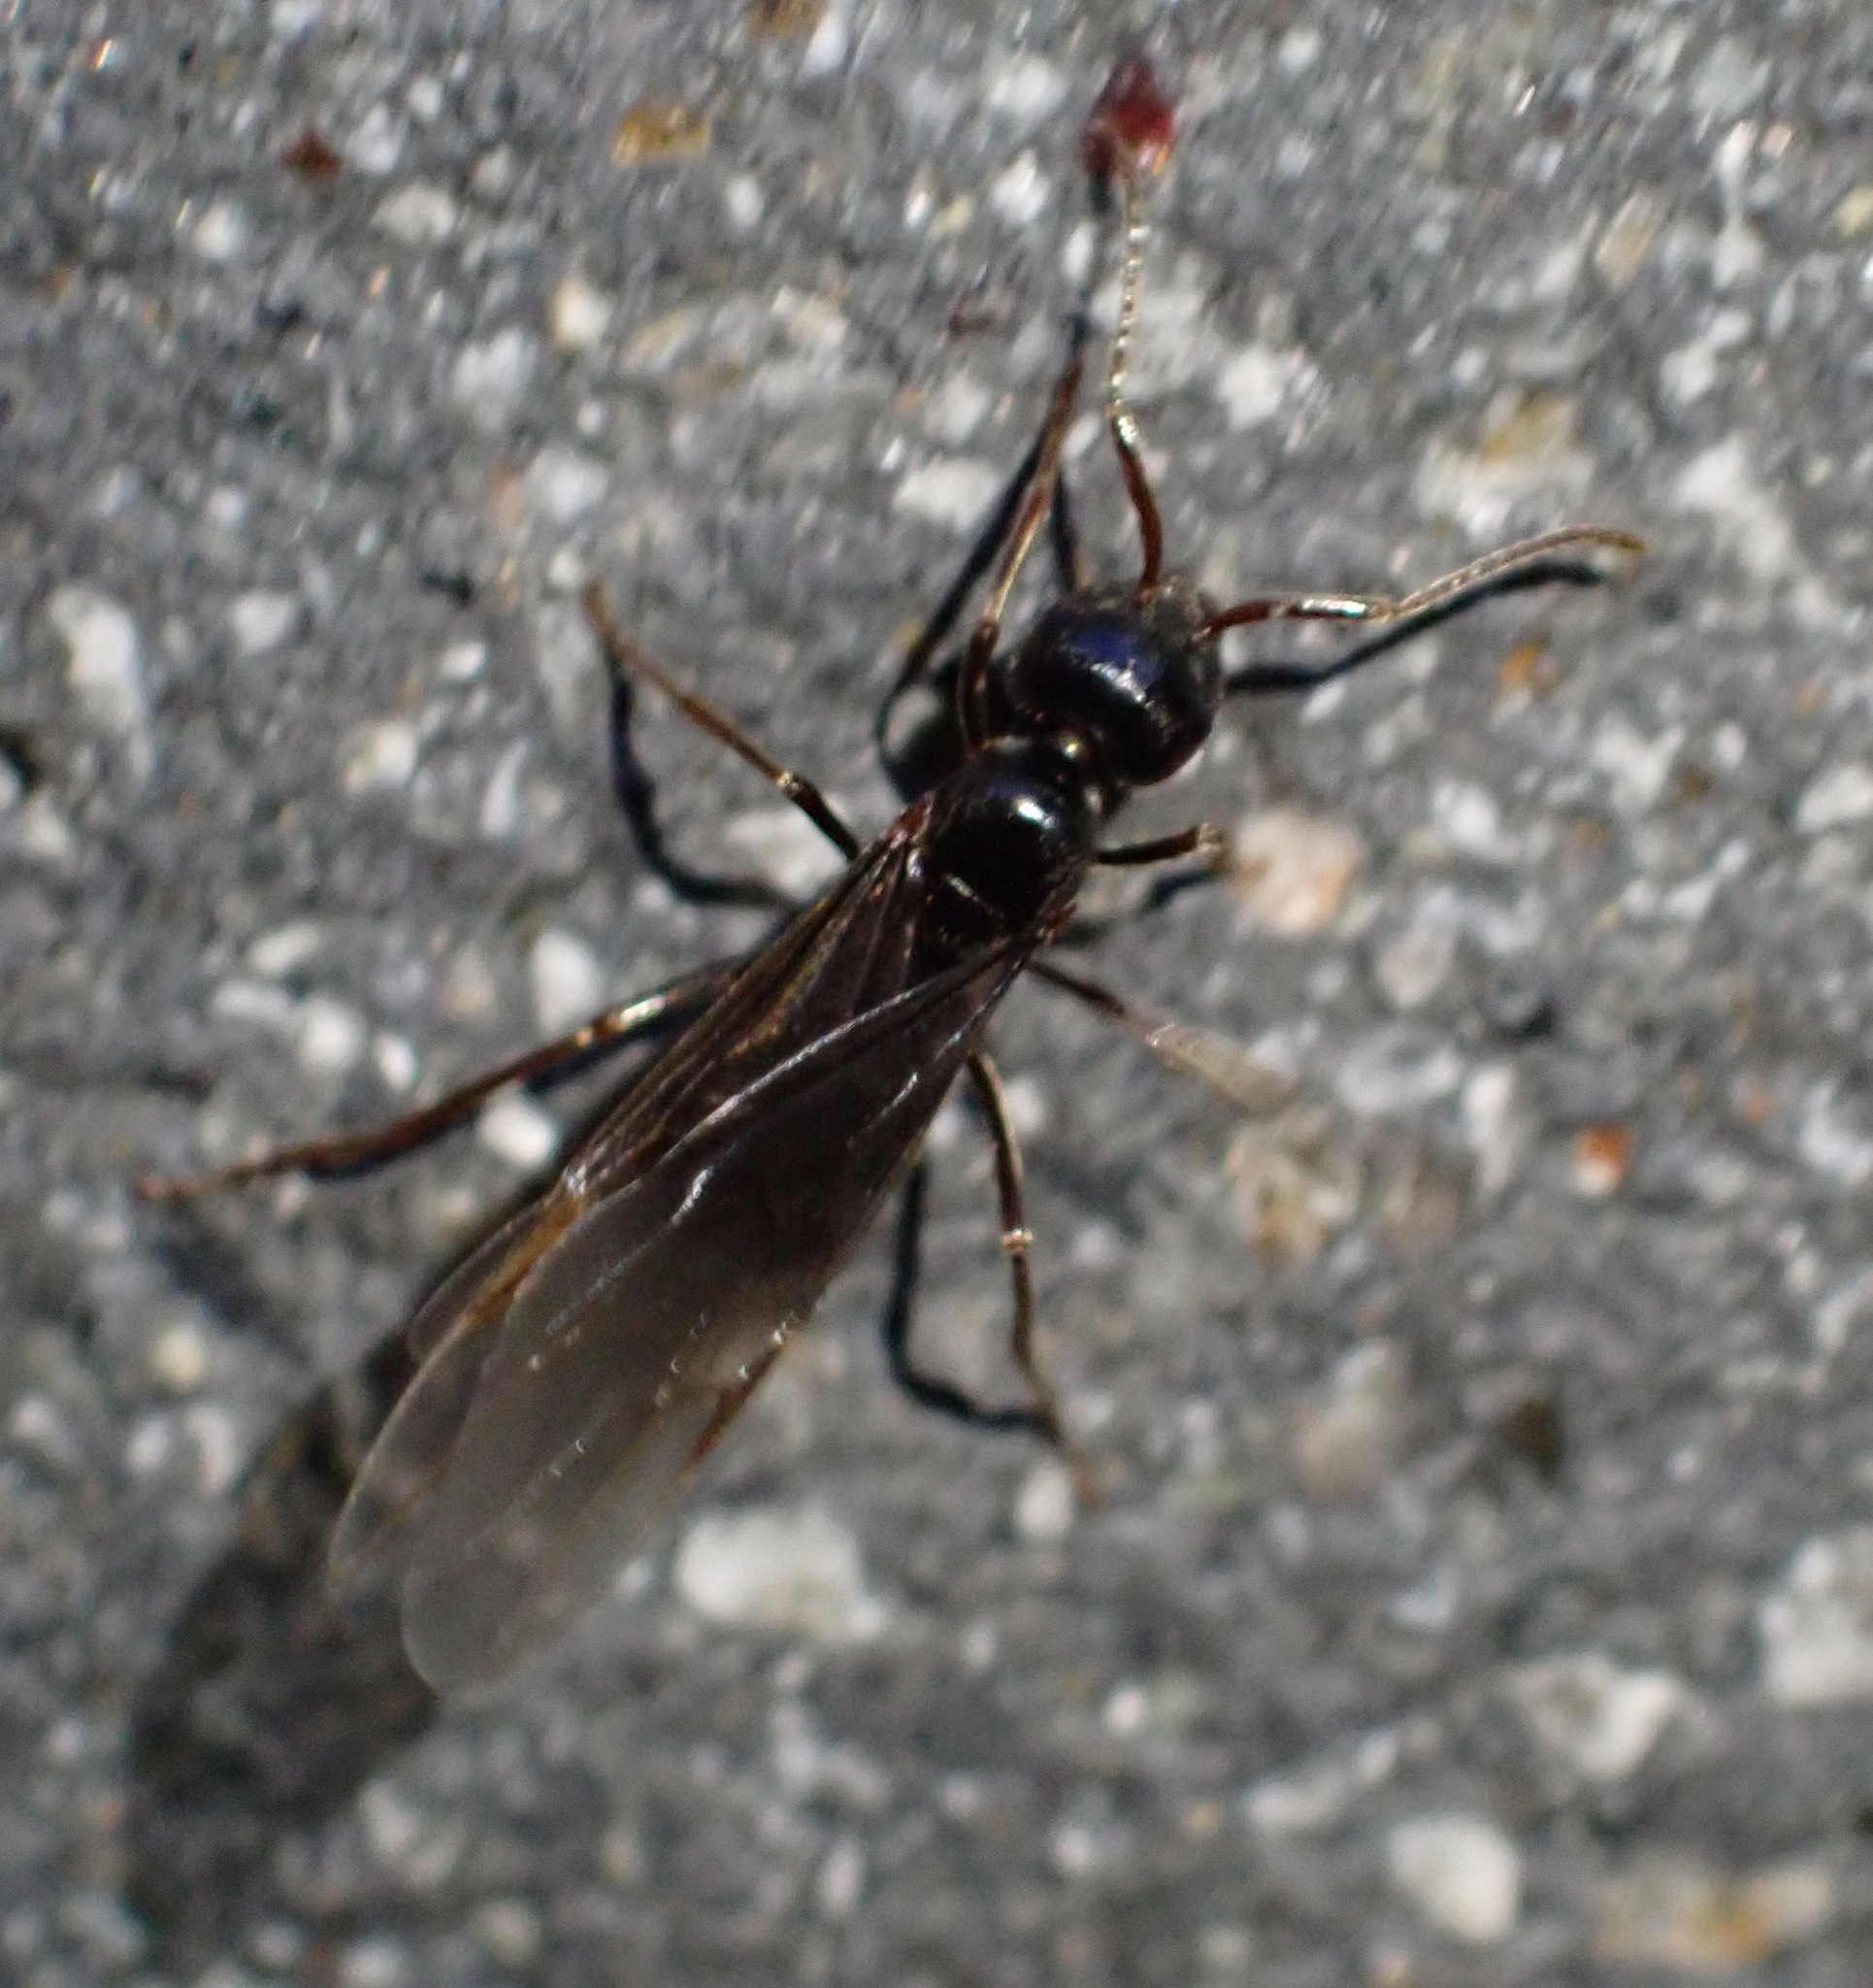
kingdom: Animalia
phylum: Arthropoda
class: Insecta
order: Hymenoptera
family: Formicidae
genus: Lasius
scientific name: Lasius fuliginosus
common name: Jet ant
